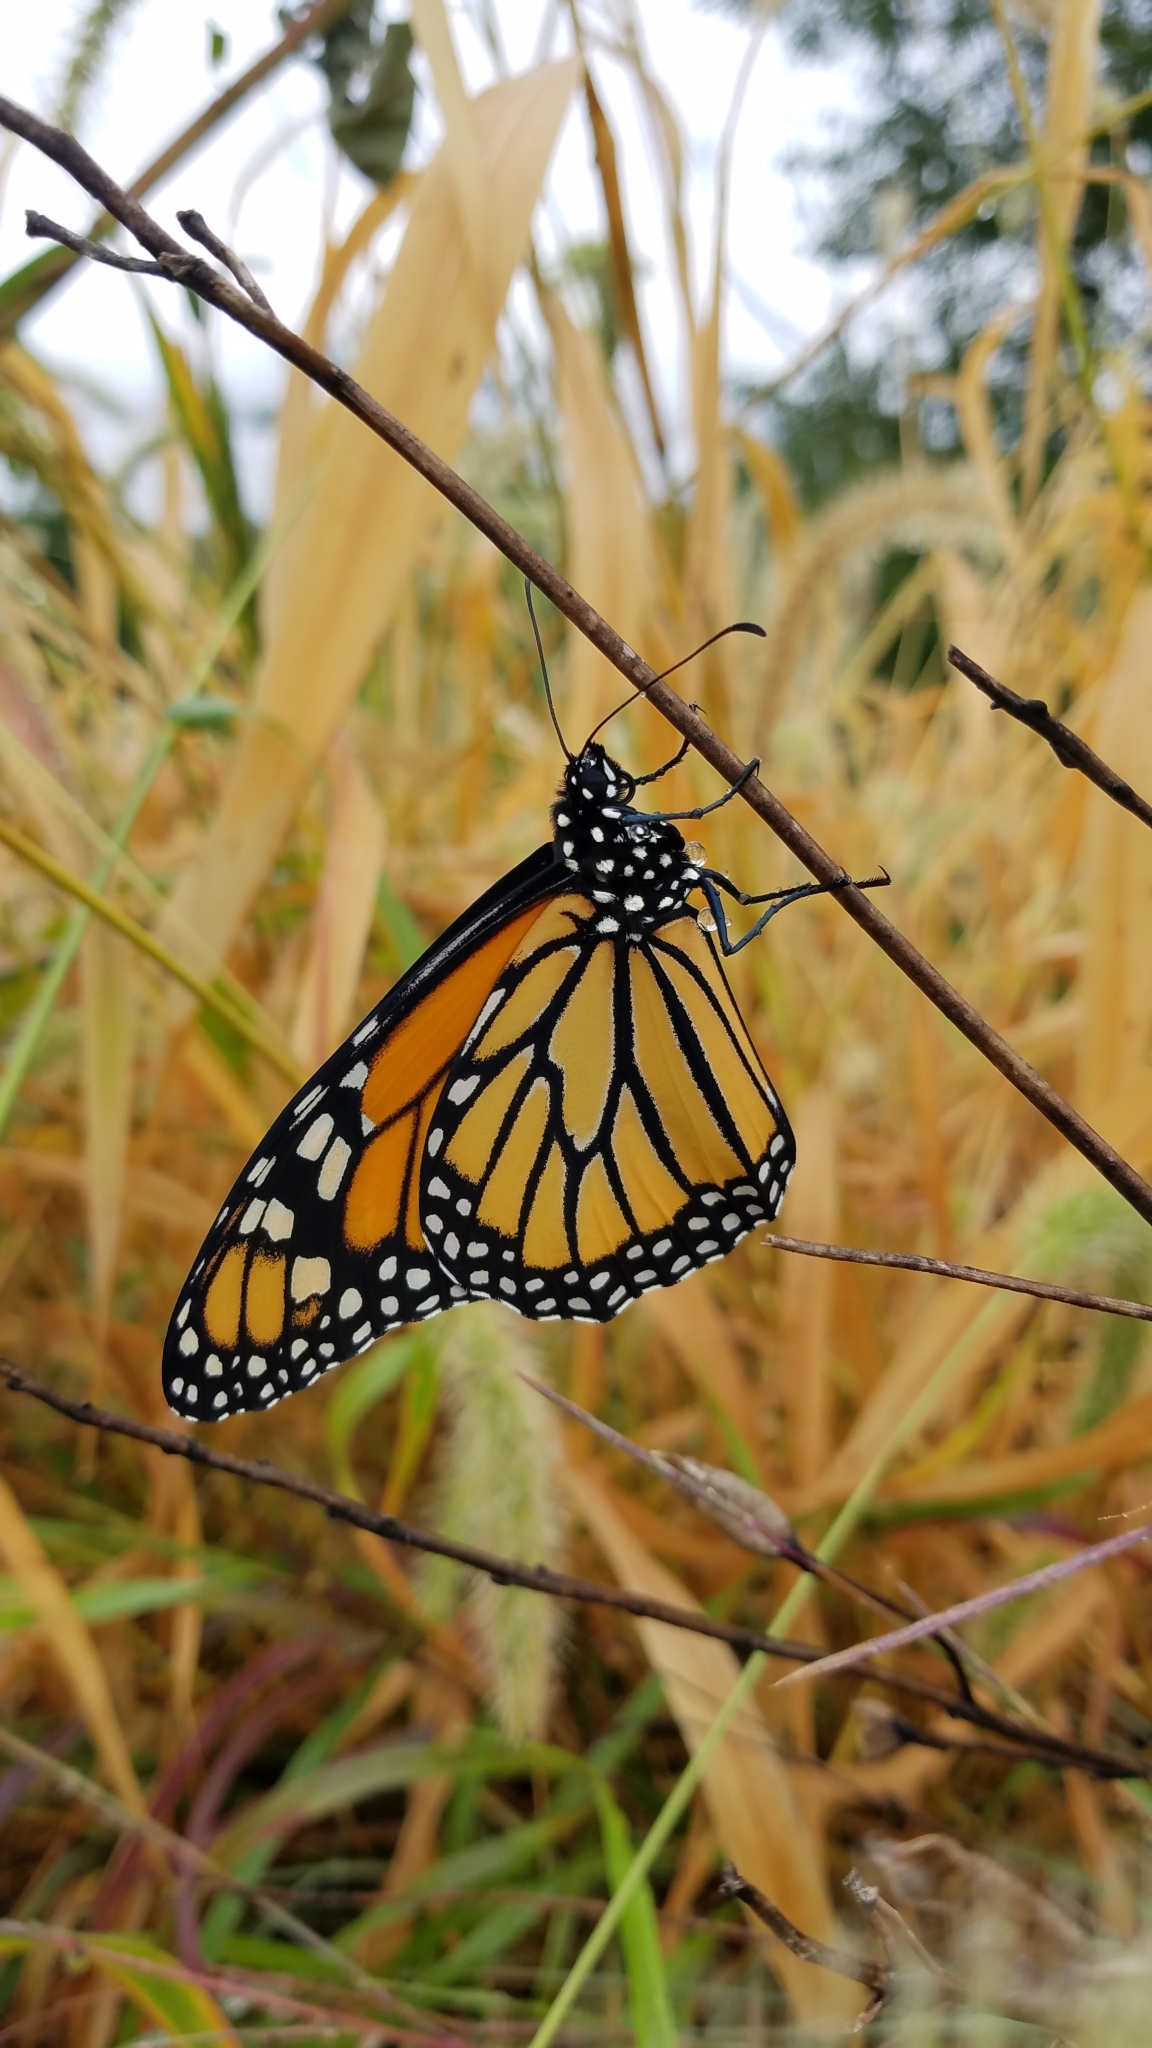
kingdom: Animalia
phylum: Arthropoda
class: Insecta
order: Lepidoptera
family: Nymphalidae
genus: Danaus
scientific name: Danaus plexippus
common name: Monarch
